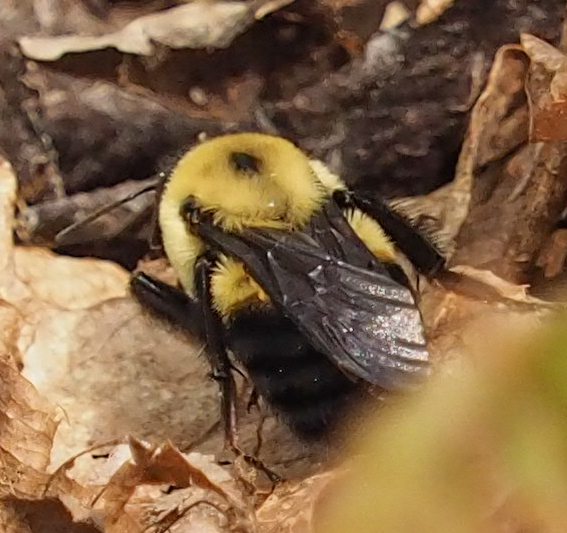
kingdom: Animalia
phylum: Arthropoda
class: Insecta
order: Hymenoptera
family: Apidae
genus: Bombus
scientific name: Bombus griseocollis
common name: Brown-belted bumble bee
